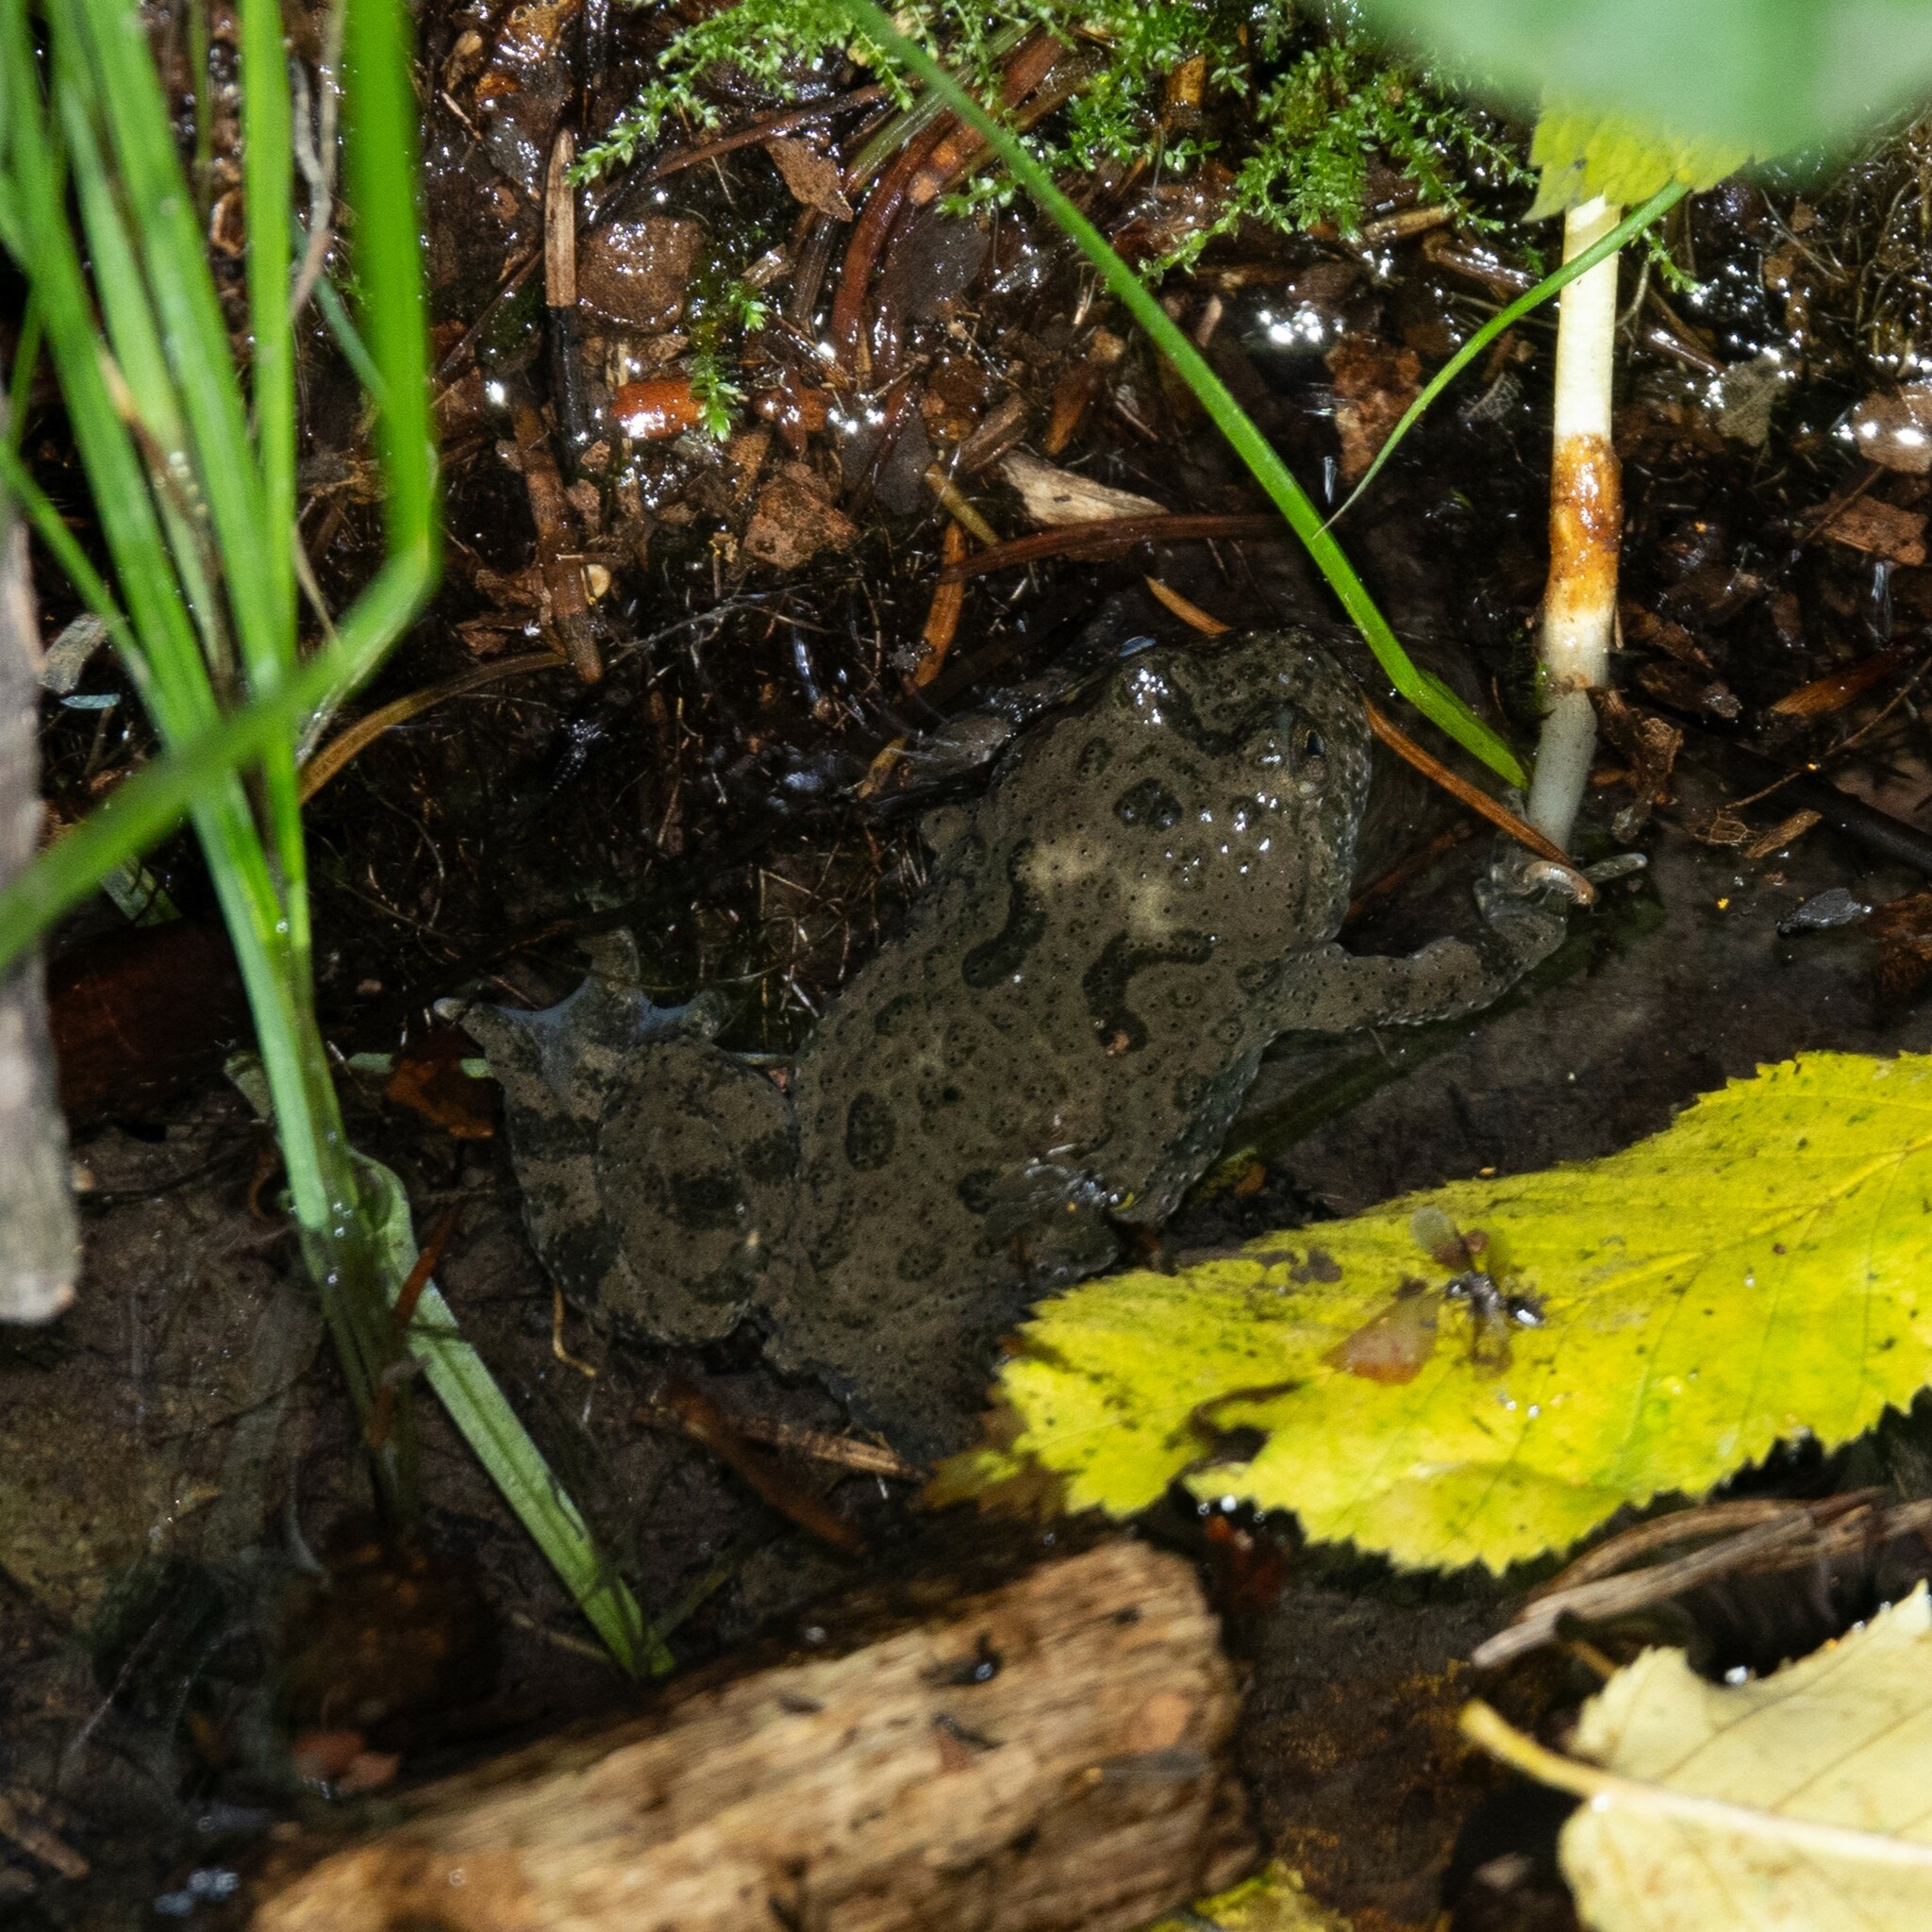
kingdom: Animalia
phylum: Chordata
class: Amphibia
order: Anura
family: Bombinatoridae
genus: Bombina
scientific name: Bombina variegata
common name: Yellow-bellied toad
